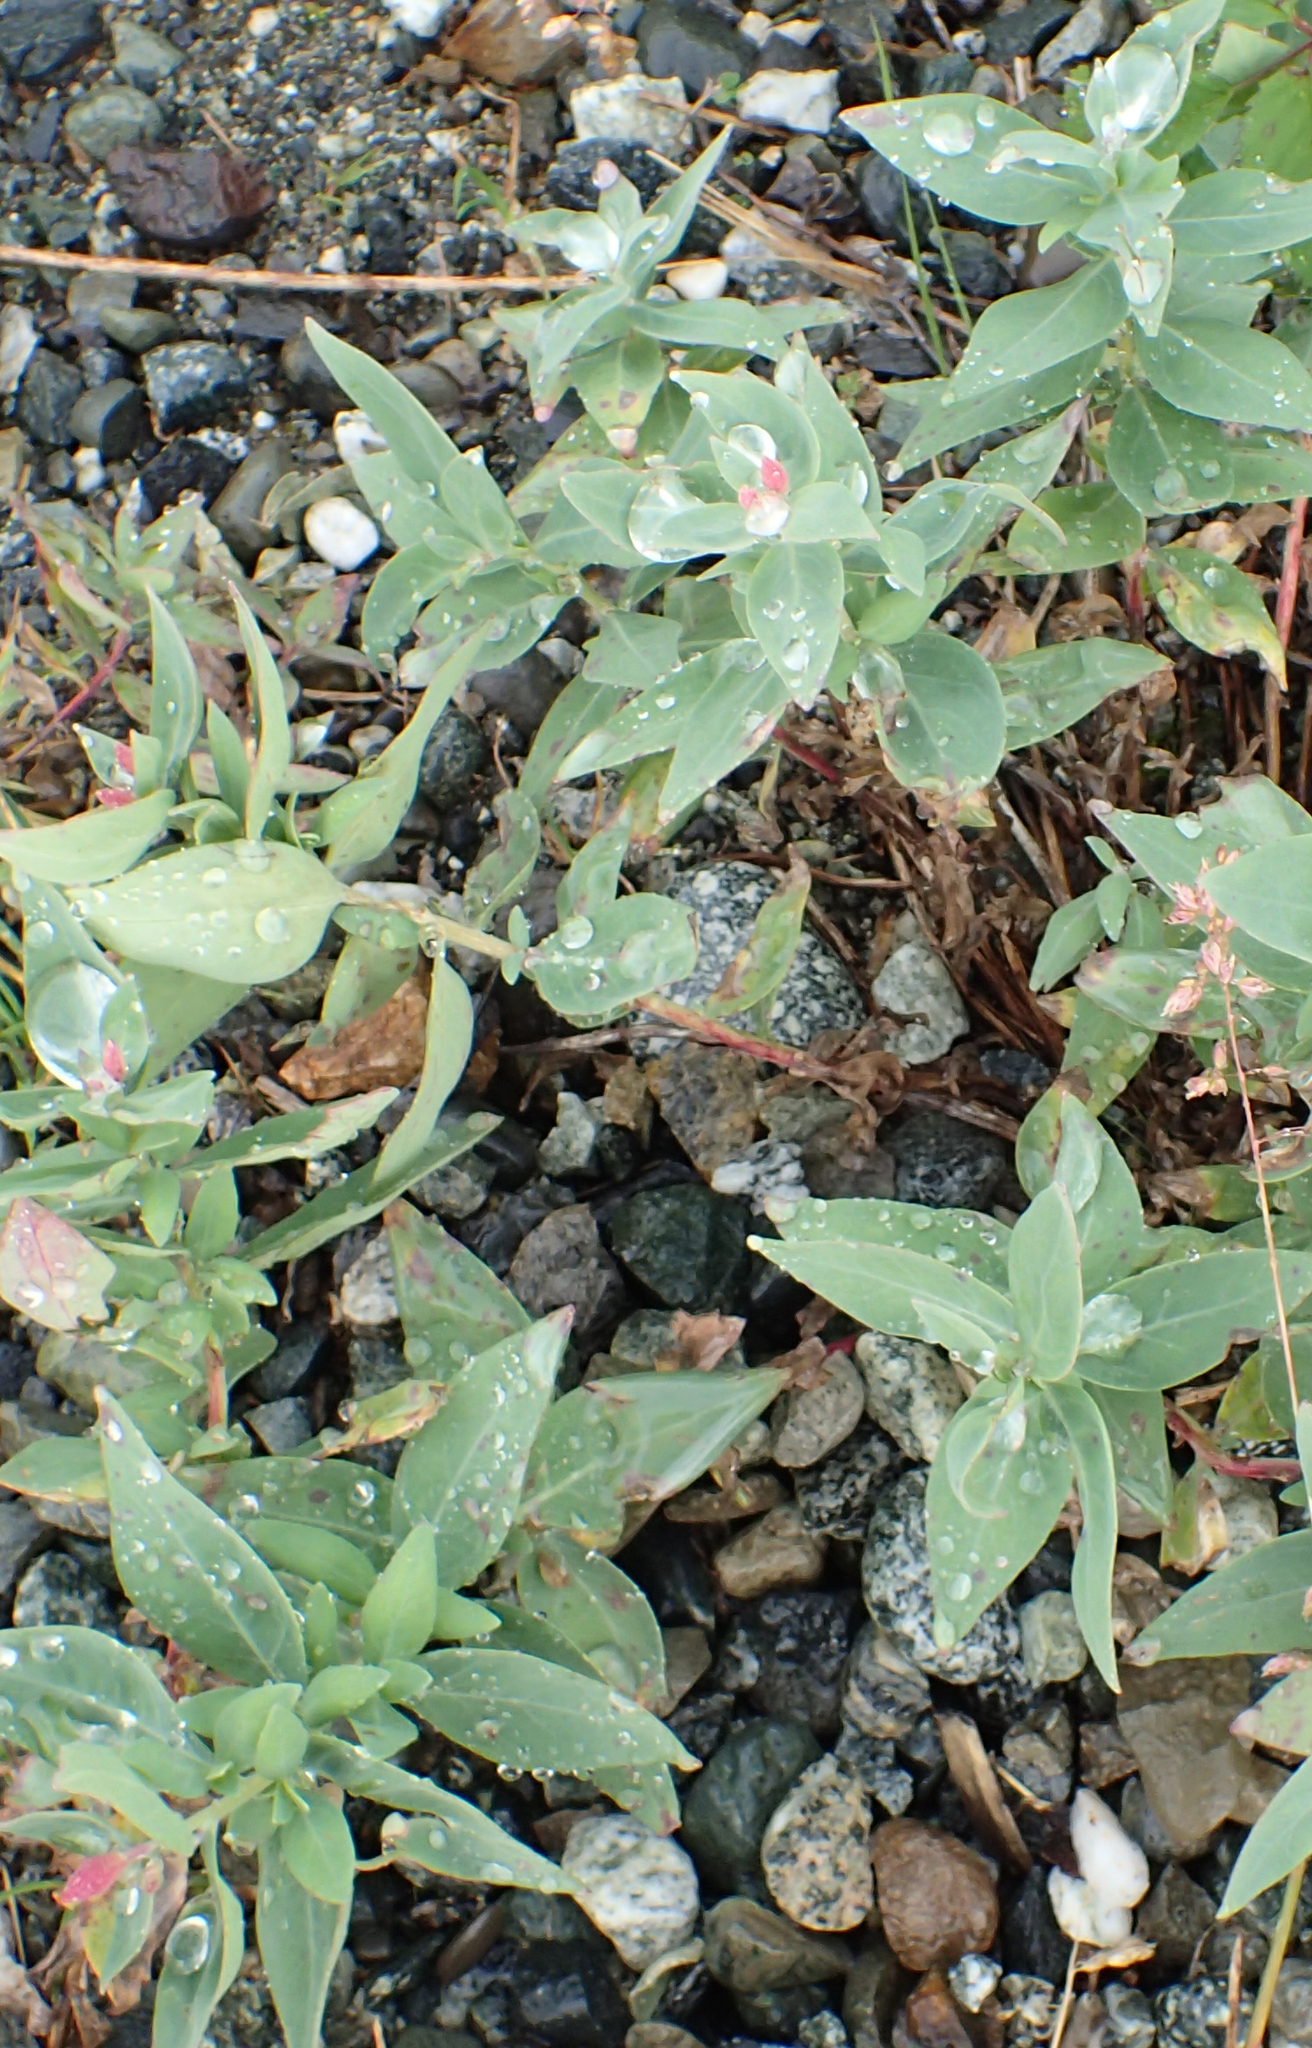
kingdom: Plantae
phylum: Tracheophyta
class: Magnoliopsida
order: Myrtales
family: Onagraceae
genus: Chamaenerion
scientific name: Chamaenerion latifolium
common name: Dwarf fireweed
